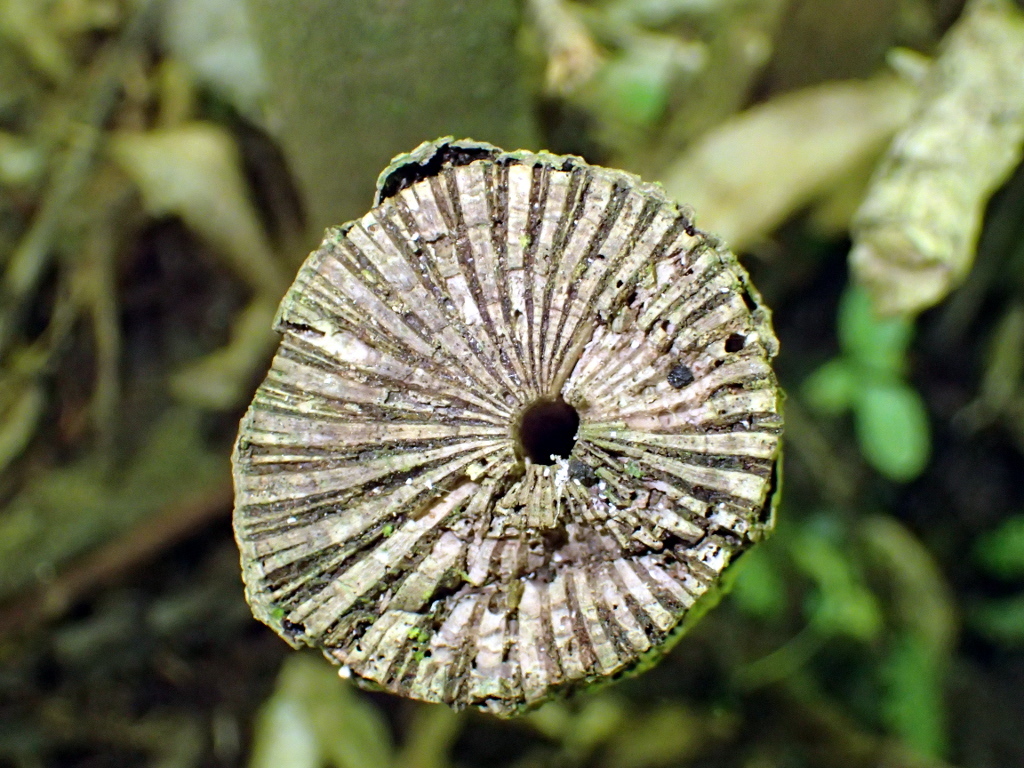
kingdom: Plantae
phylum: Tracheophyta
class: Magnoliopsida
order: Piperales
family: Piperaceae
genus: Macropiper
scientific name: Macropiper excelsum
